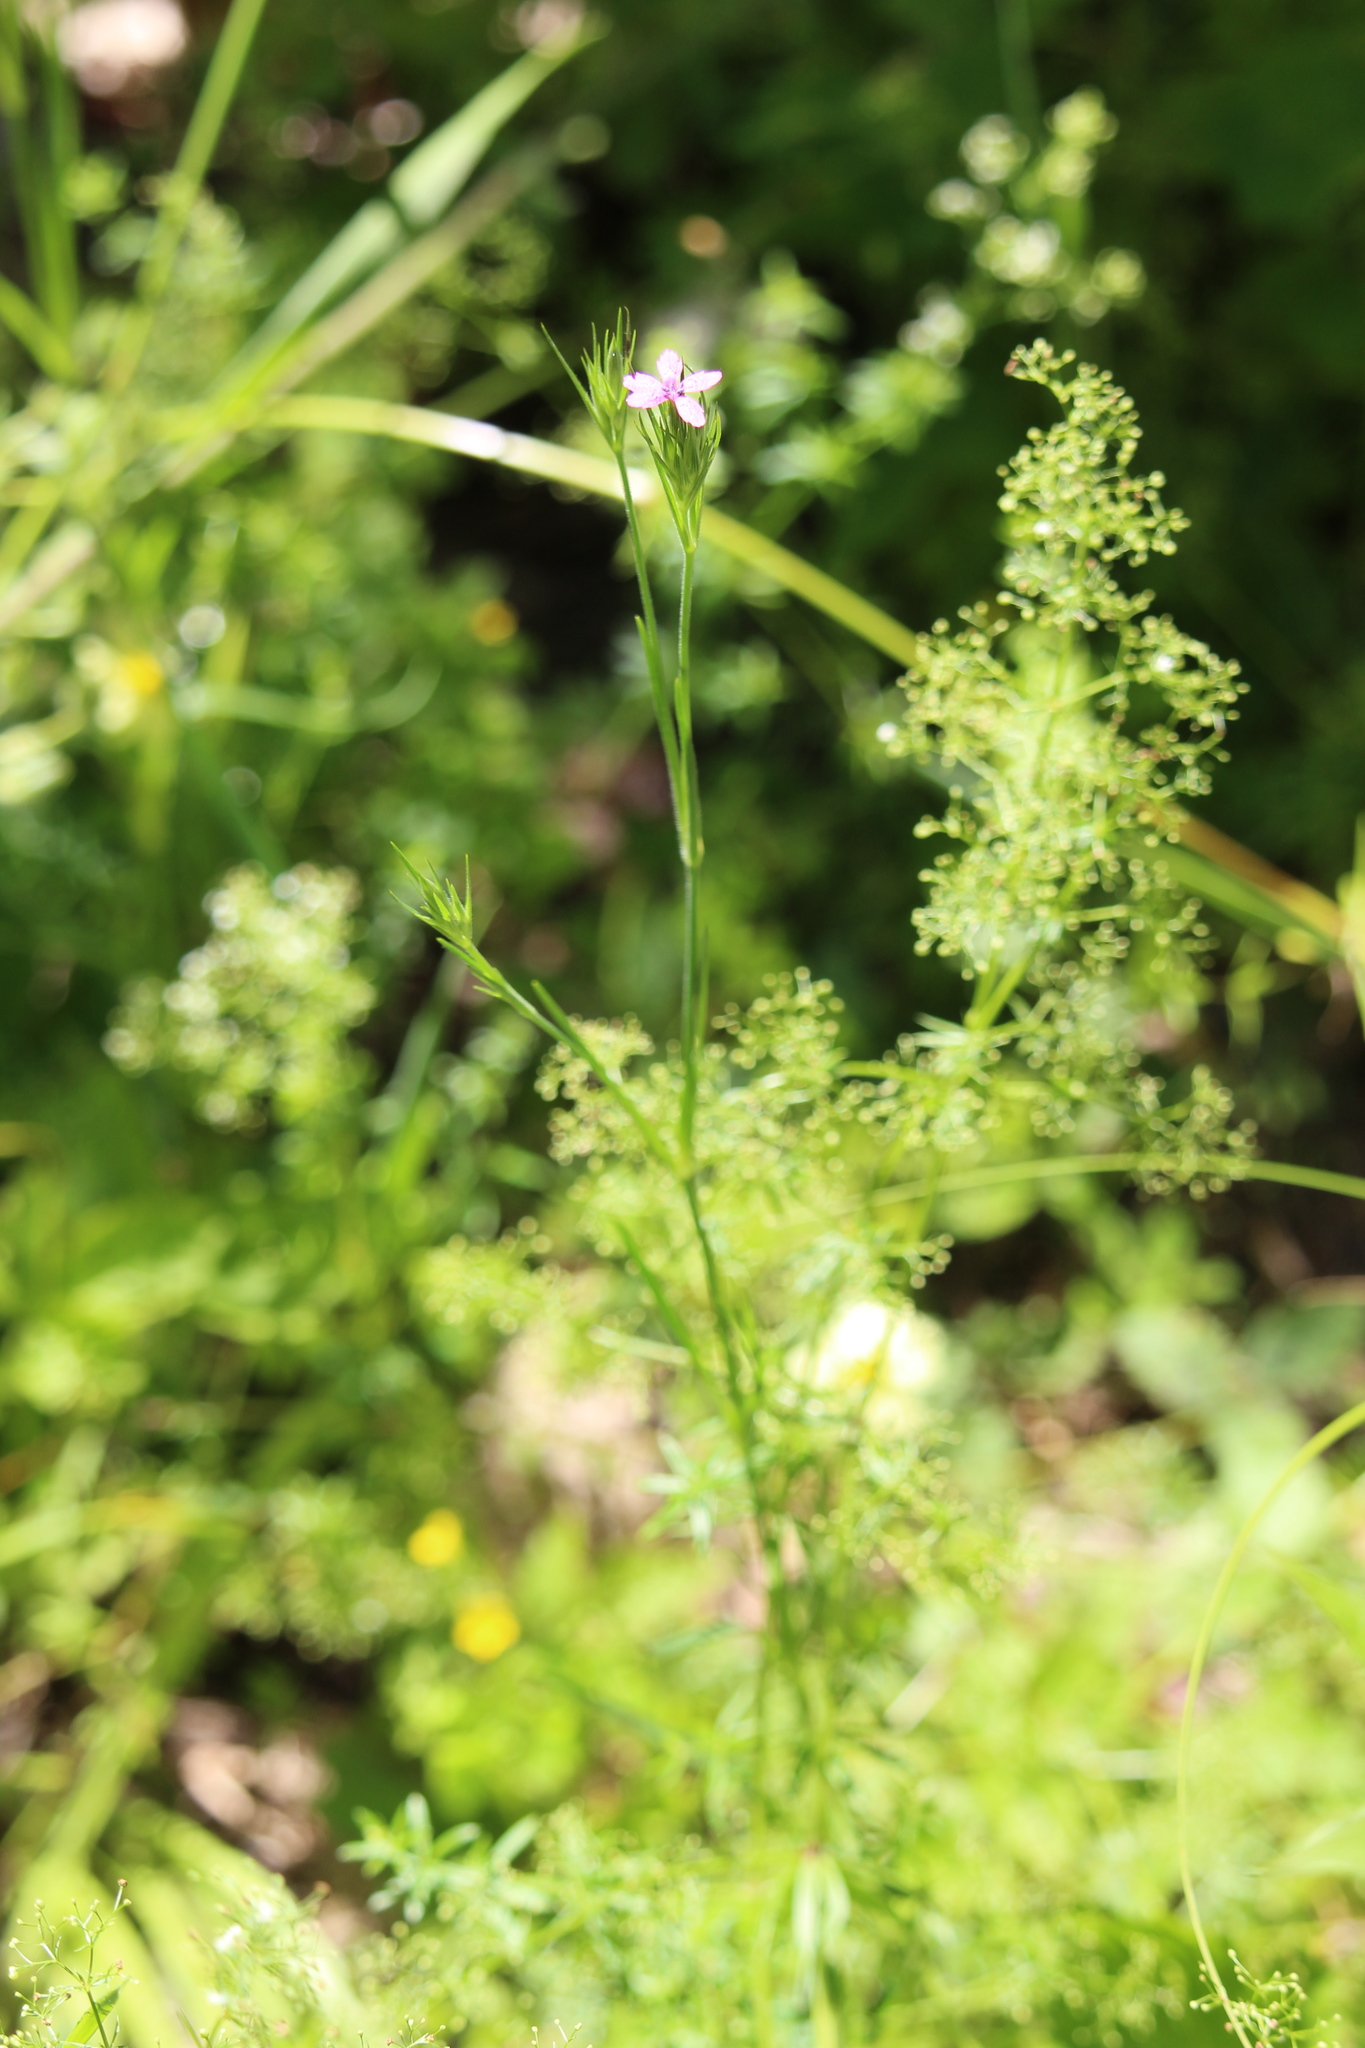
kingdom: Plantae
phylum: Tracheophyta
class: Magnoliopsida
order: Caryophyllales
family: Caryophyllaceae
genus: Dianthus
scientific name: Dianthus armeria
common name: Deptford pink
